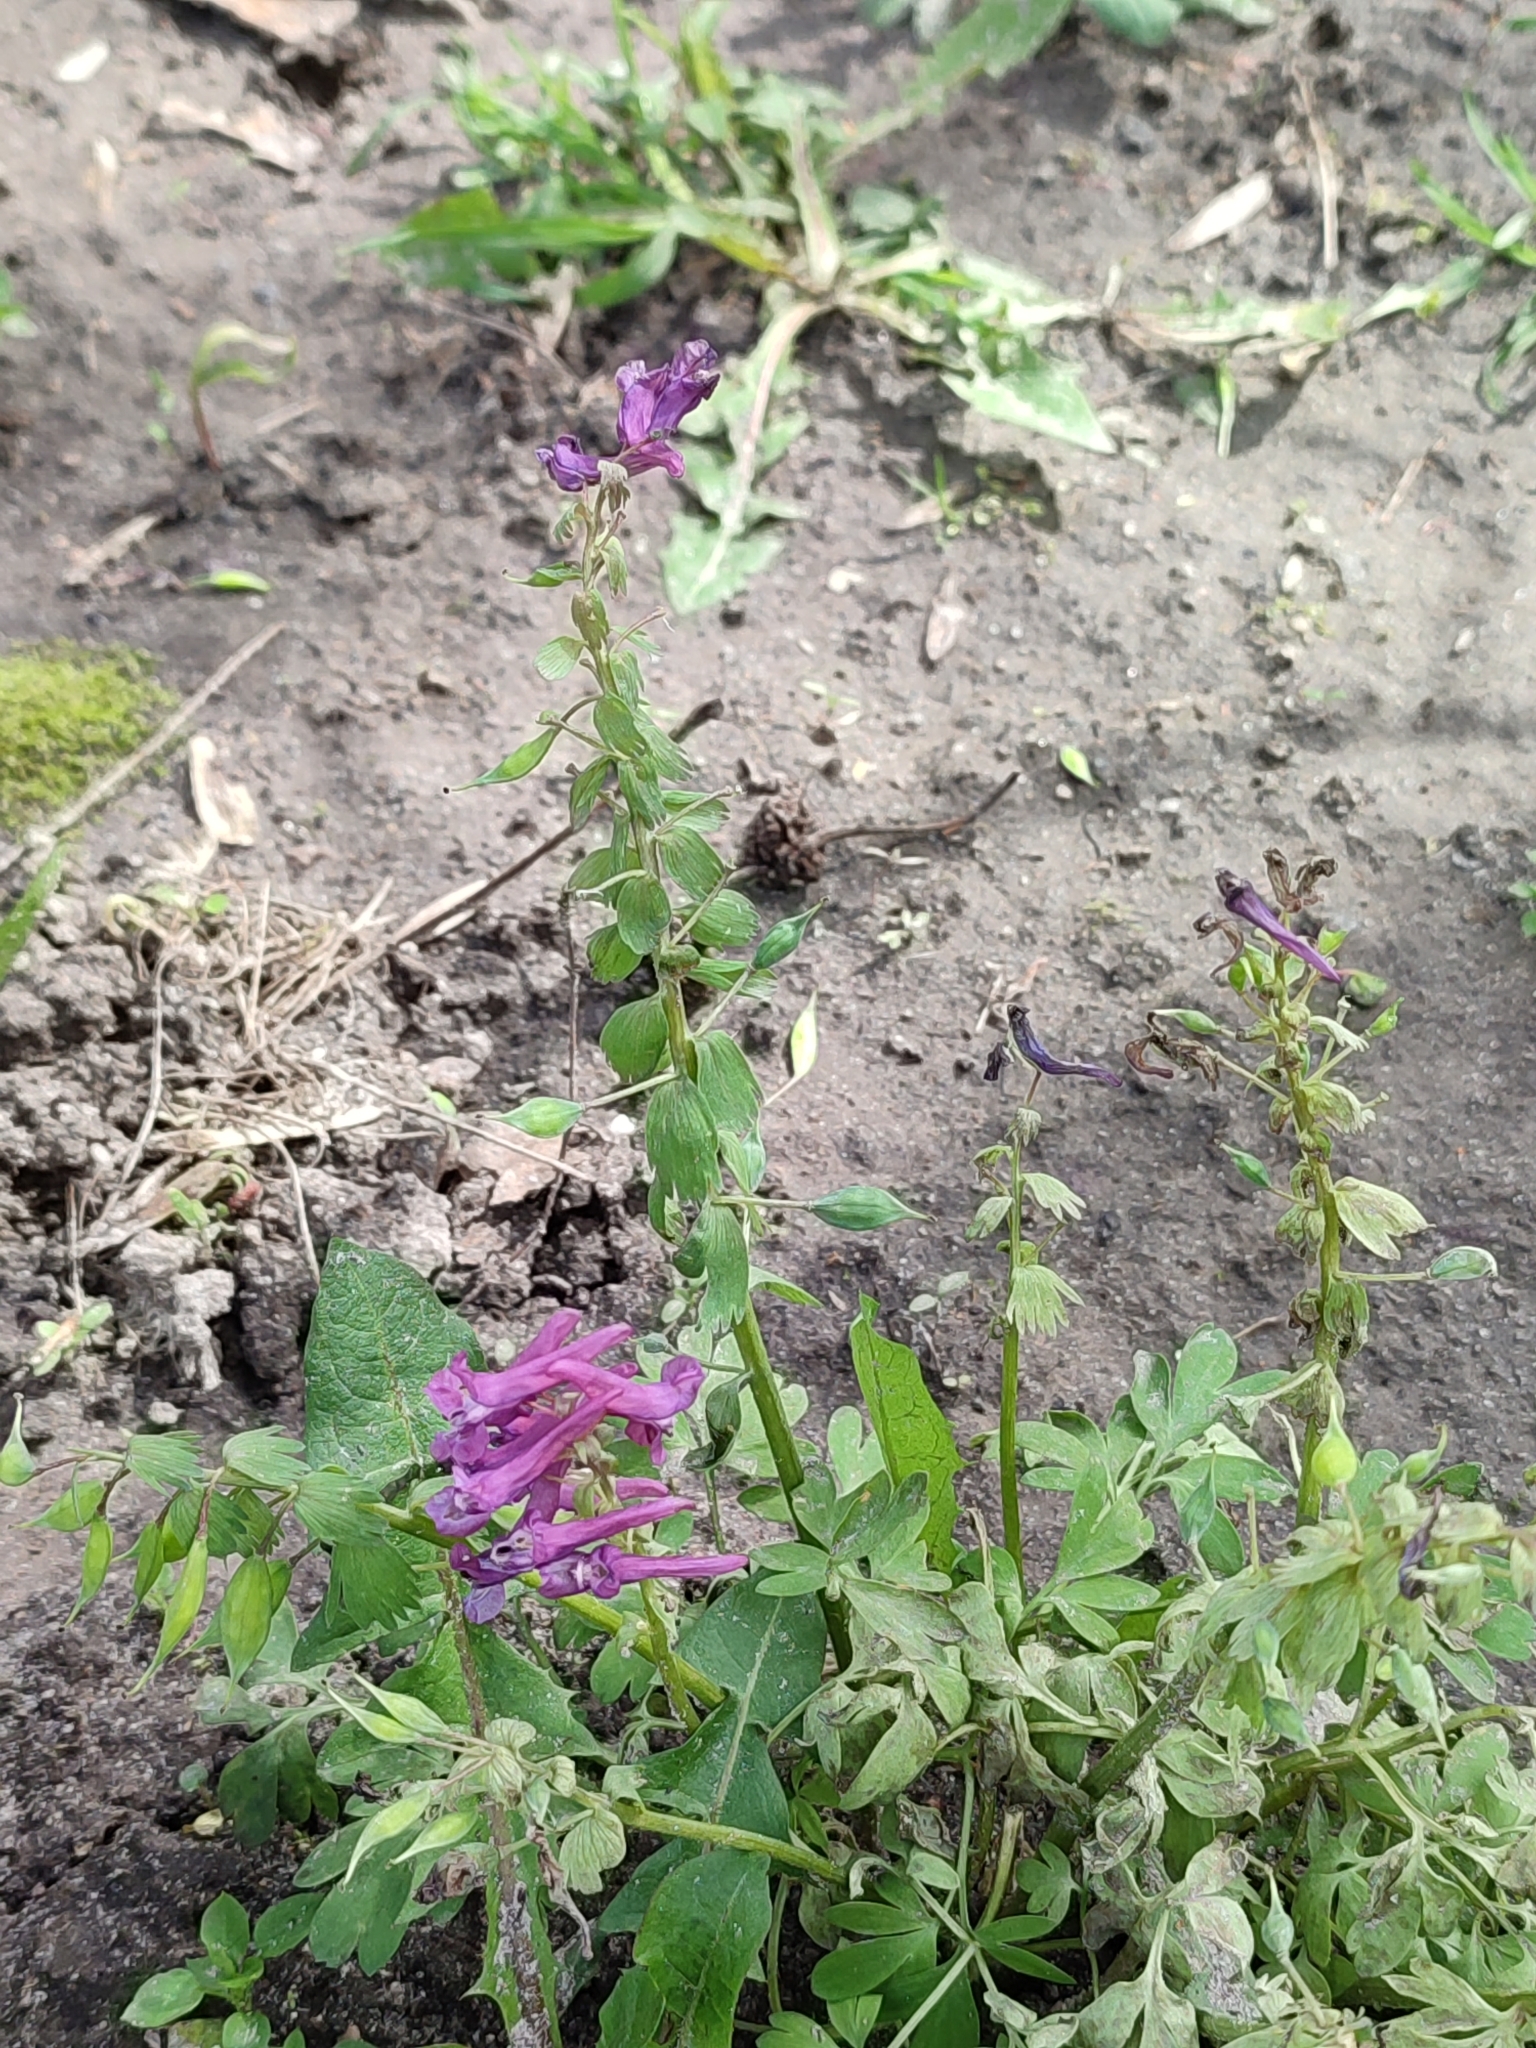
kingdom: Plantae
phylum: Tracheophyta
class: Magnoliopsida
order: Ranunculales
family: Papaveraceae
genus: Corydalis
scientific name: Corydalis solida
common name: Bird-in-a-bush
